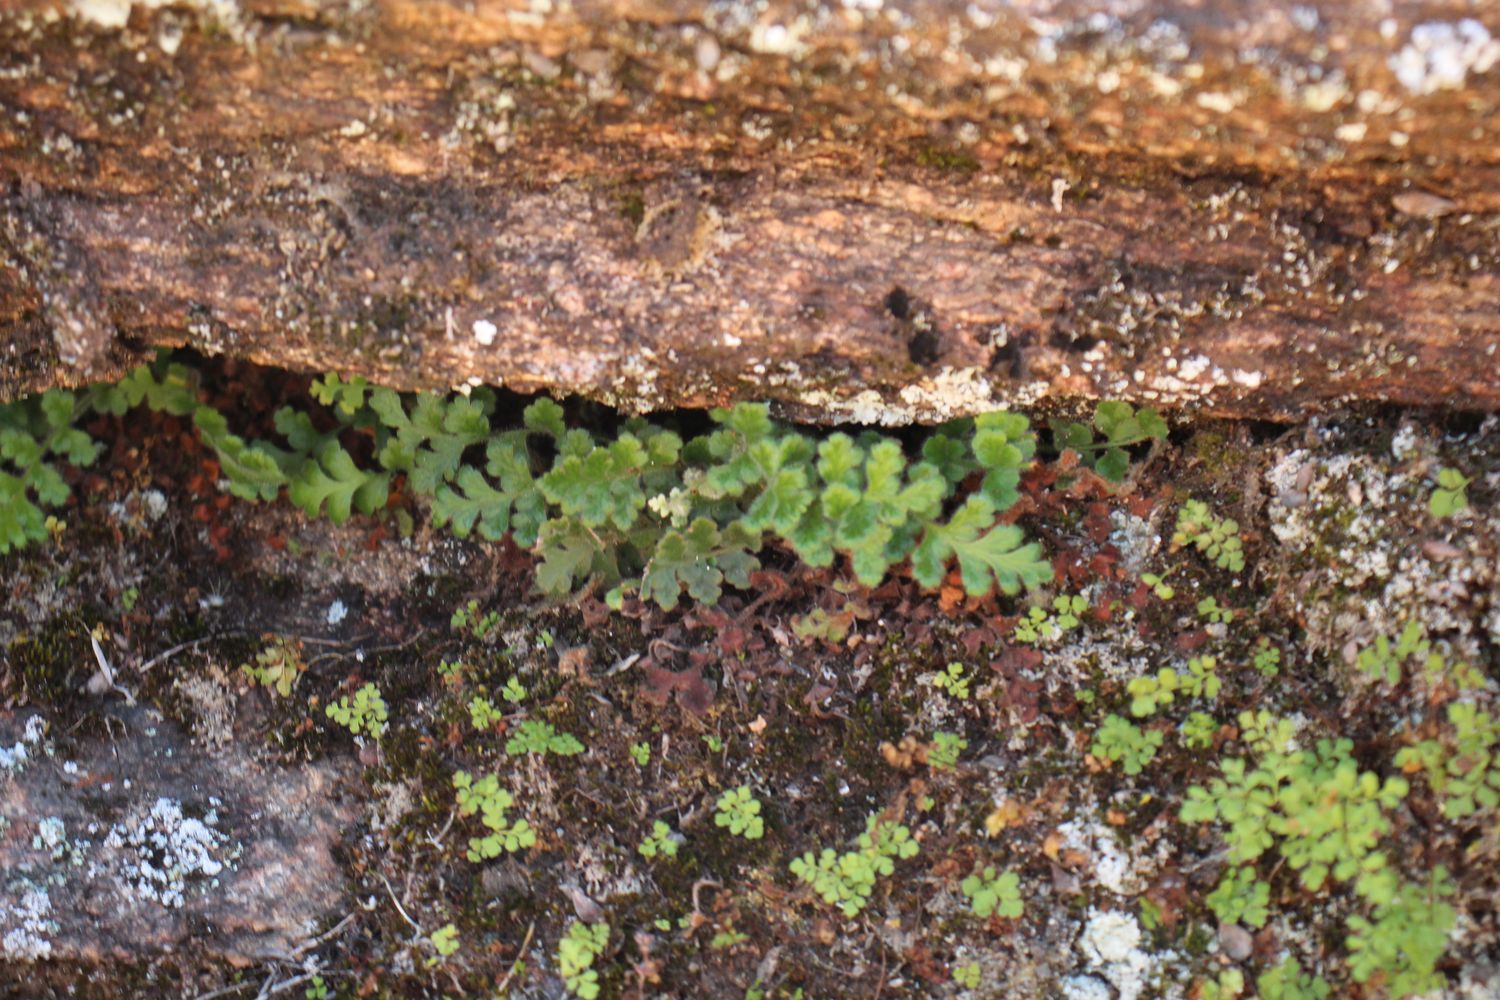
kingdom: Plantae
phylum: Tracheophyta
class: Polypodiopsida
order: Polypodiales
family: Aspleniaceae
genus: Asplenium
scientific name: Asplenium subglandulosum
